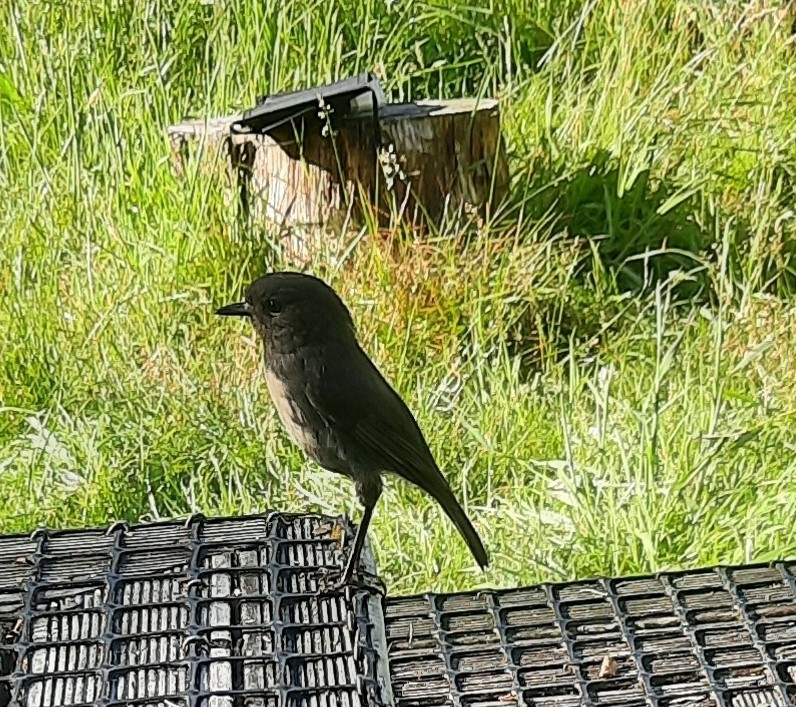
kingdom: Animalia
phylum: Chordata
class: Aves
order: Passeriformes
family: Petroicidae
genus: Petroica
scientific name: Petroica australis
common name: New zealand robin
